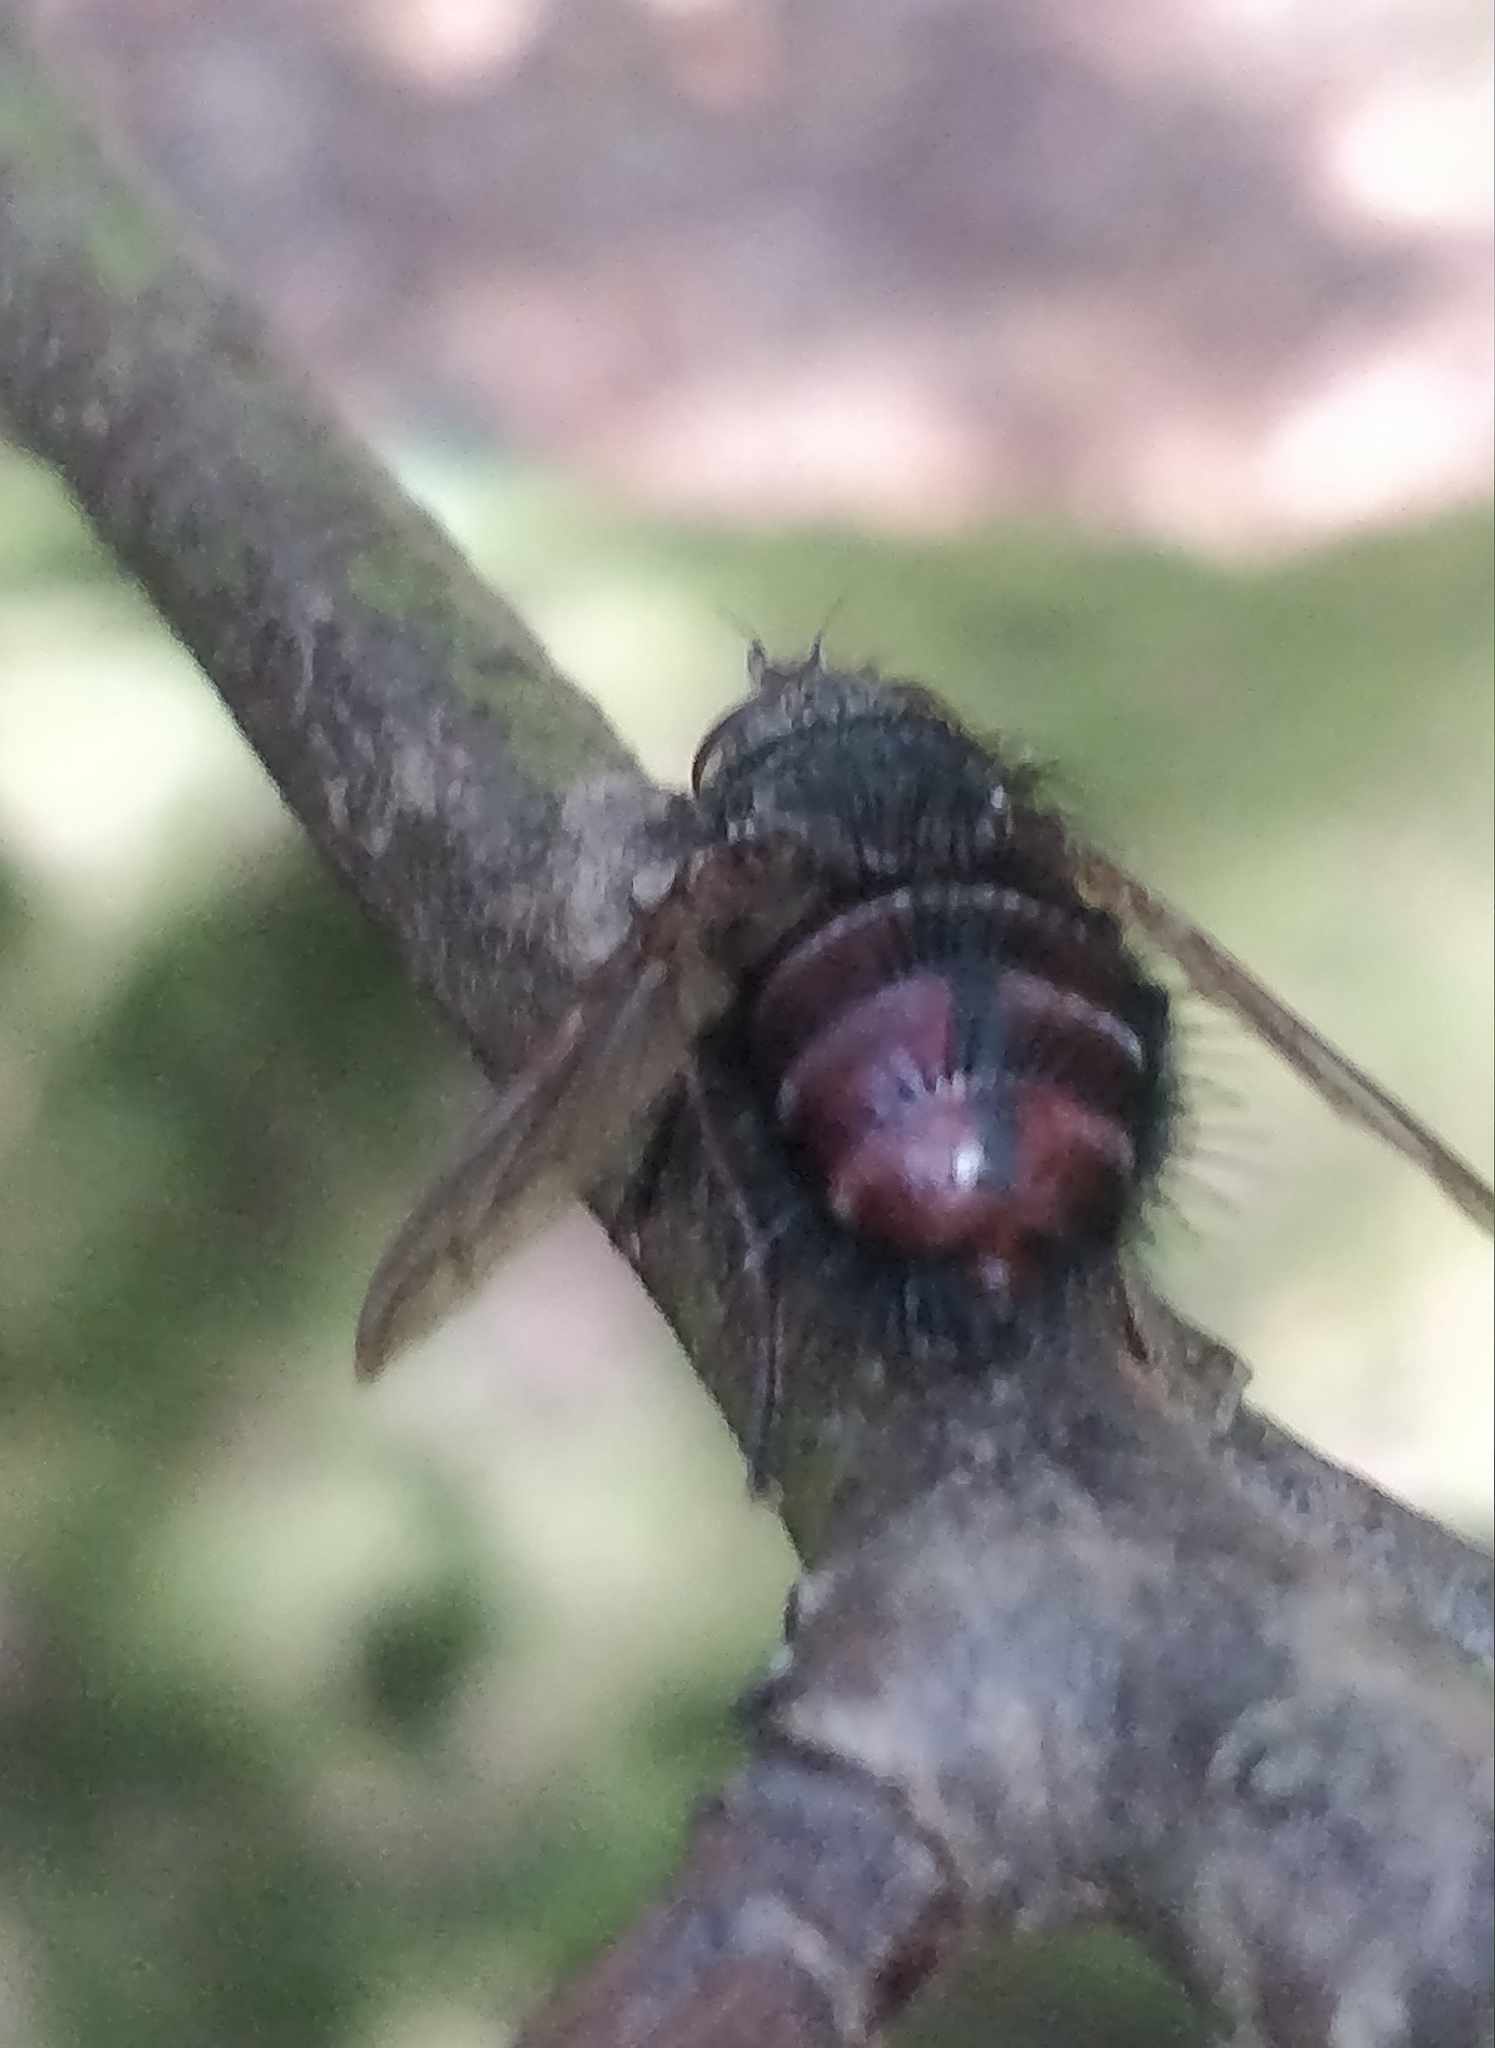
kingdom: Animalia
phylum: Arthropoda
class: Insecta
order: Diptera
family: Tachinidae
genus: Tachina
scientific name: Tachina canariensis
